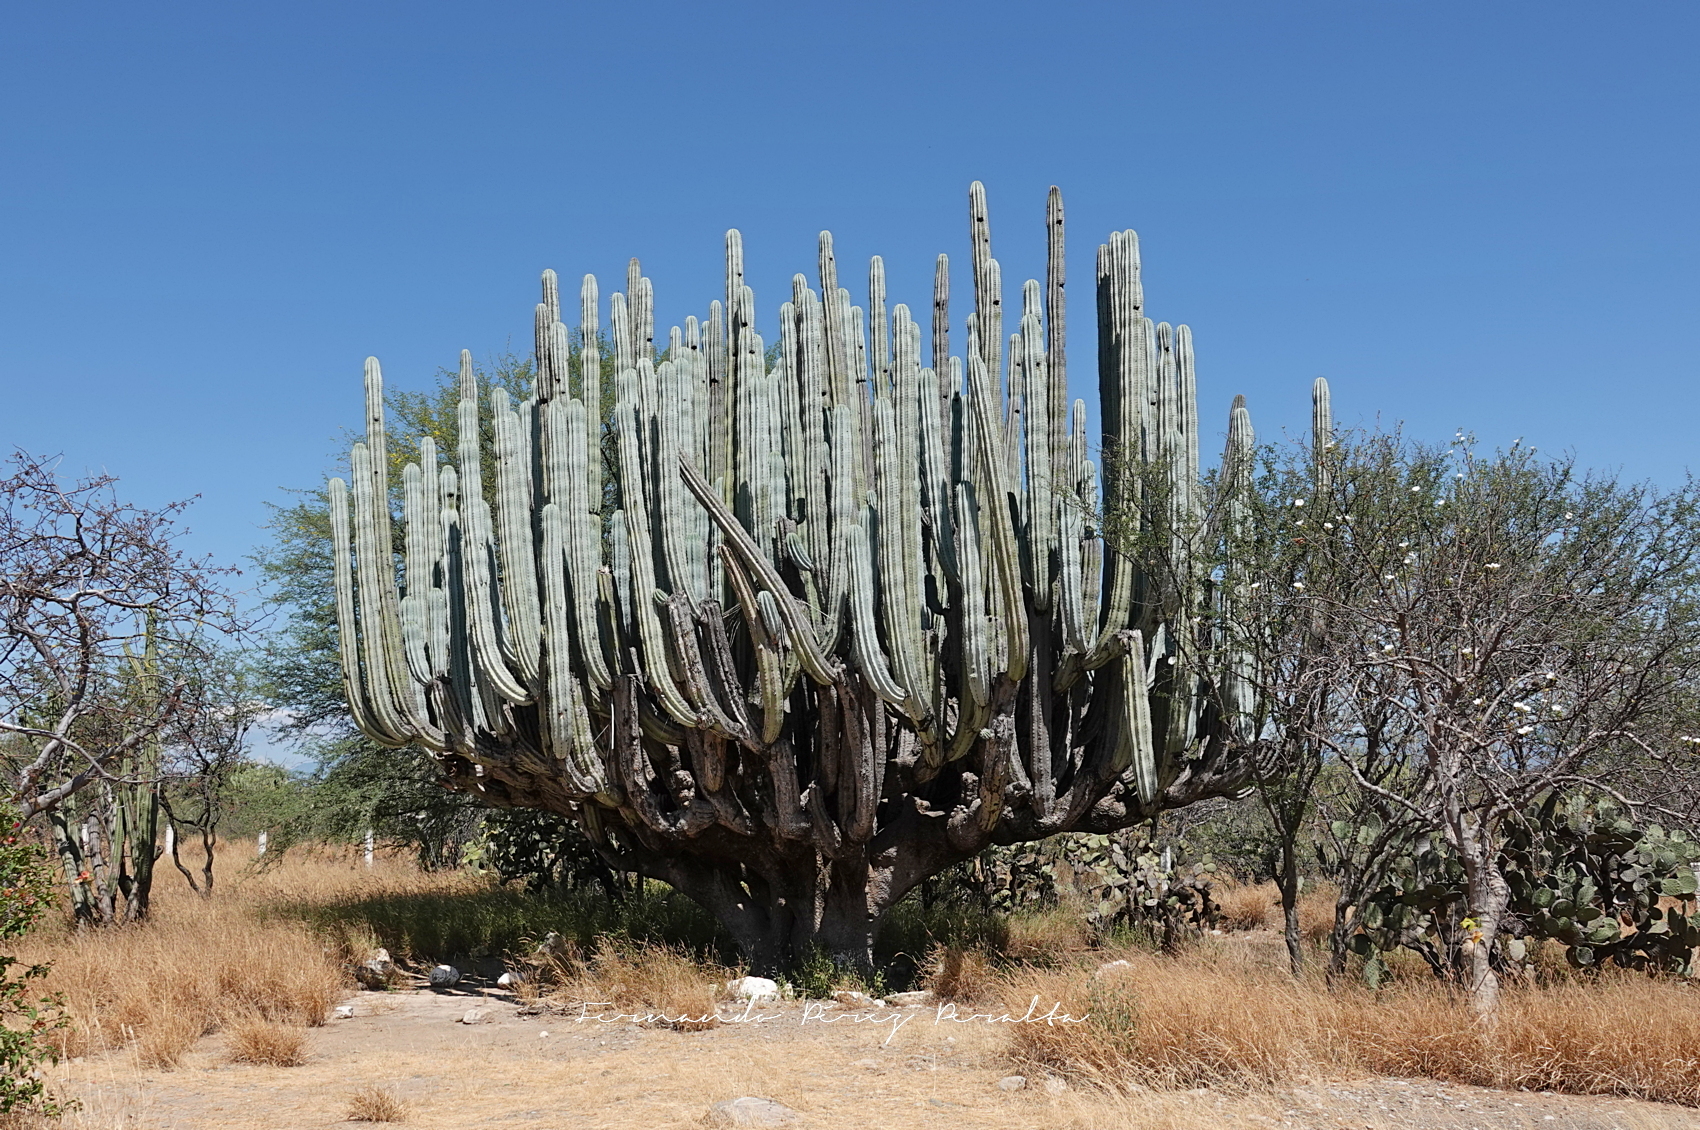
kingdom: Plantae
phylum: Tracheophyta
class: Magnoliopsida
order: Caryophyllales
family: Cactaceae
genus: Pachycereus
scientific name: Pachycereus weberi
